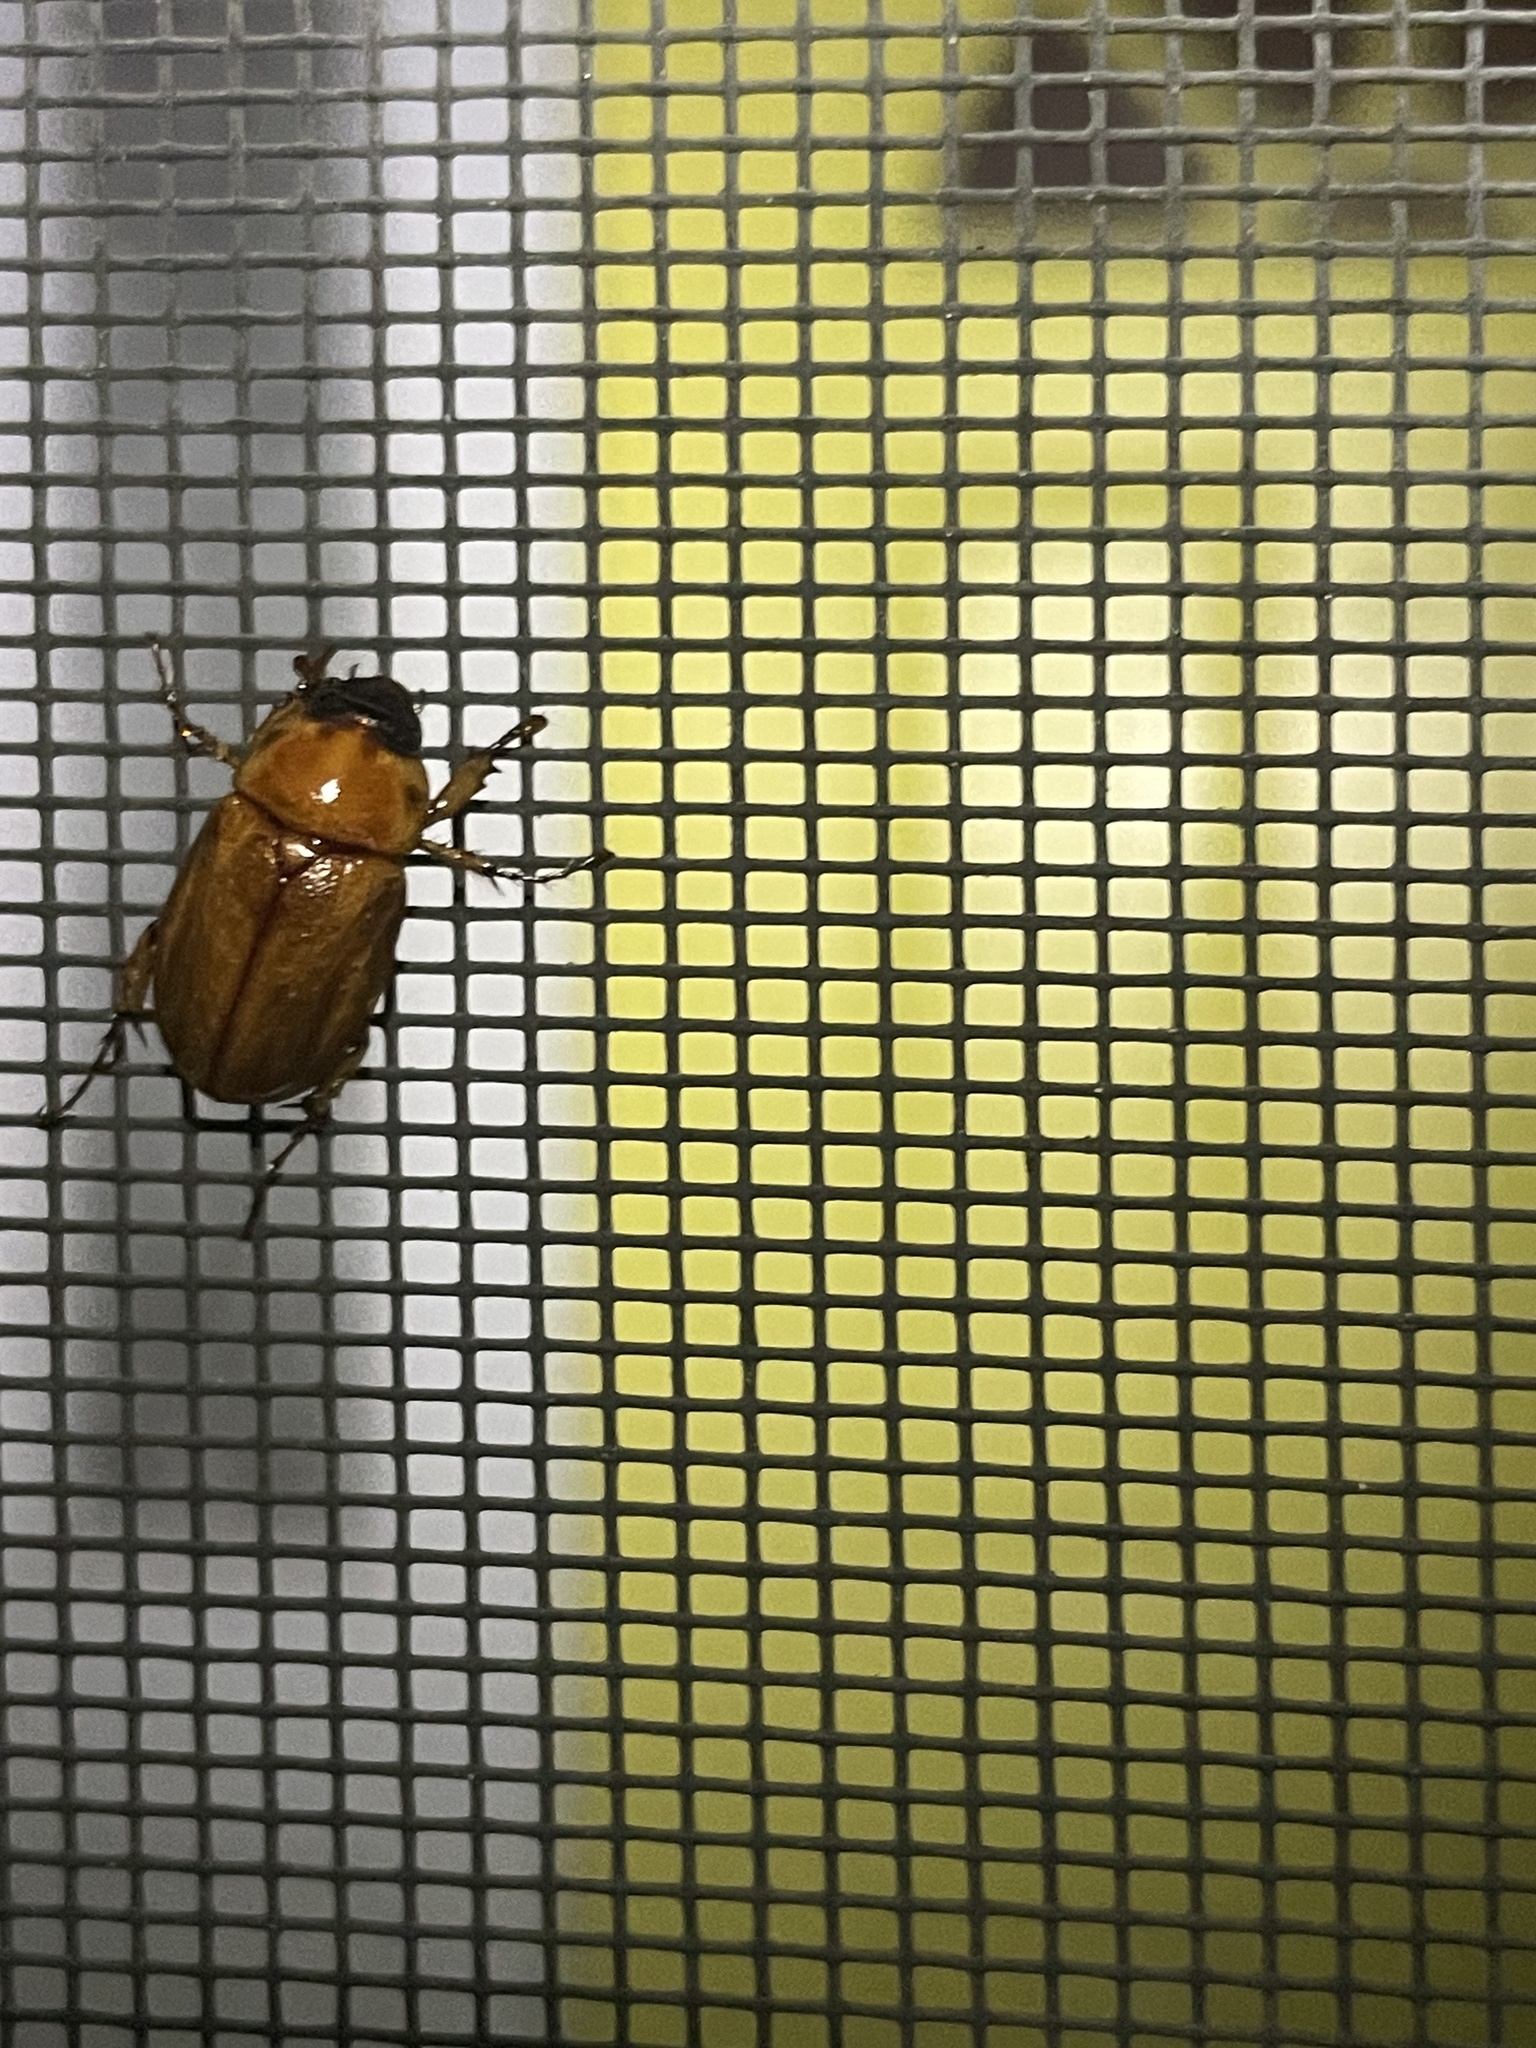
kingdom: Animalia
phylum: Arthropoda
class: Insecta
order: Coleoptera
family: Scarabaeidae
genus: Cyclocephala
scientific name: Cyclocephala lurida
